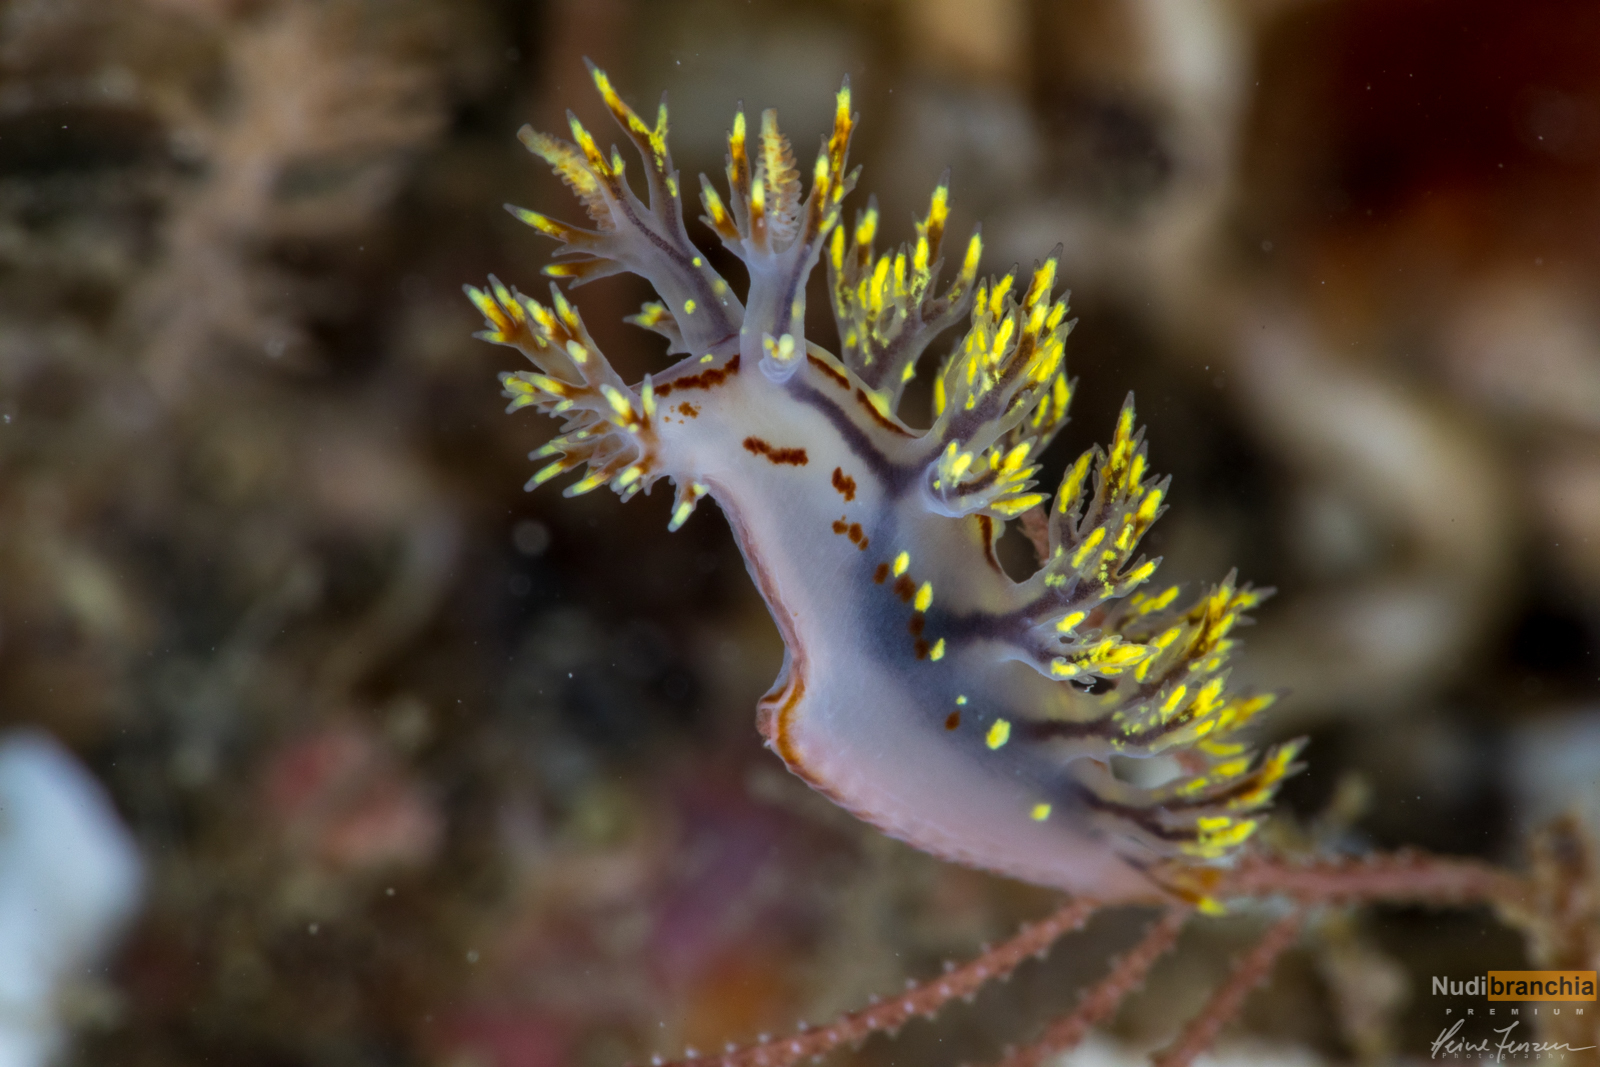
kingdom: Animalia
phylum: Mollusca
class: Gastropoda
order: Nudibranchia
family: Dendronotidae
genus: Dendronotus
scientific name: Dendronotus yrjargul
